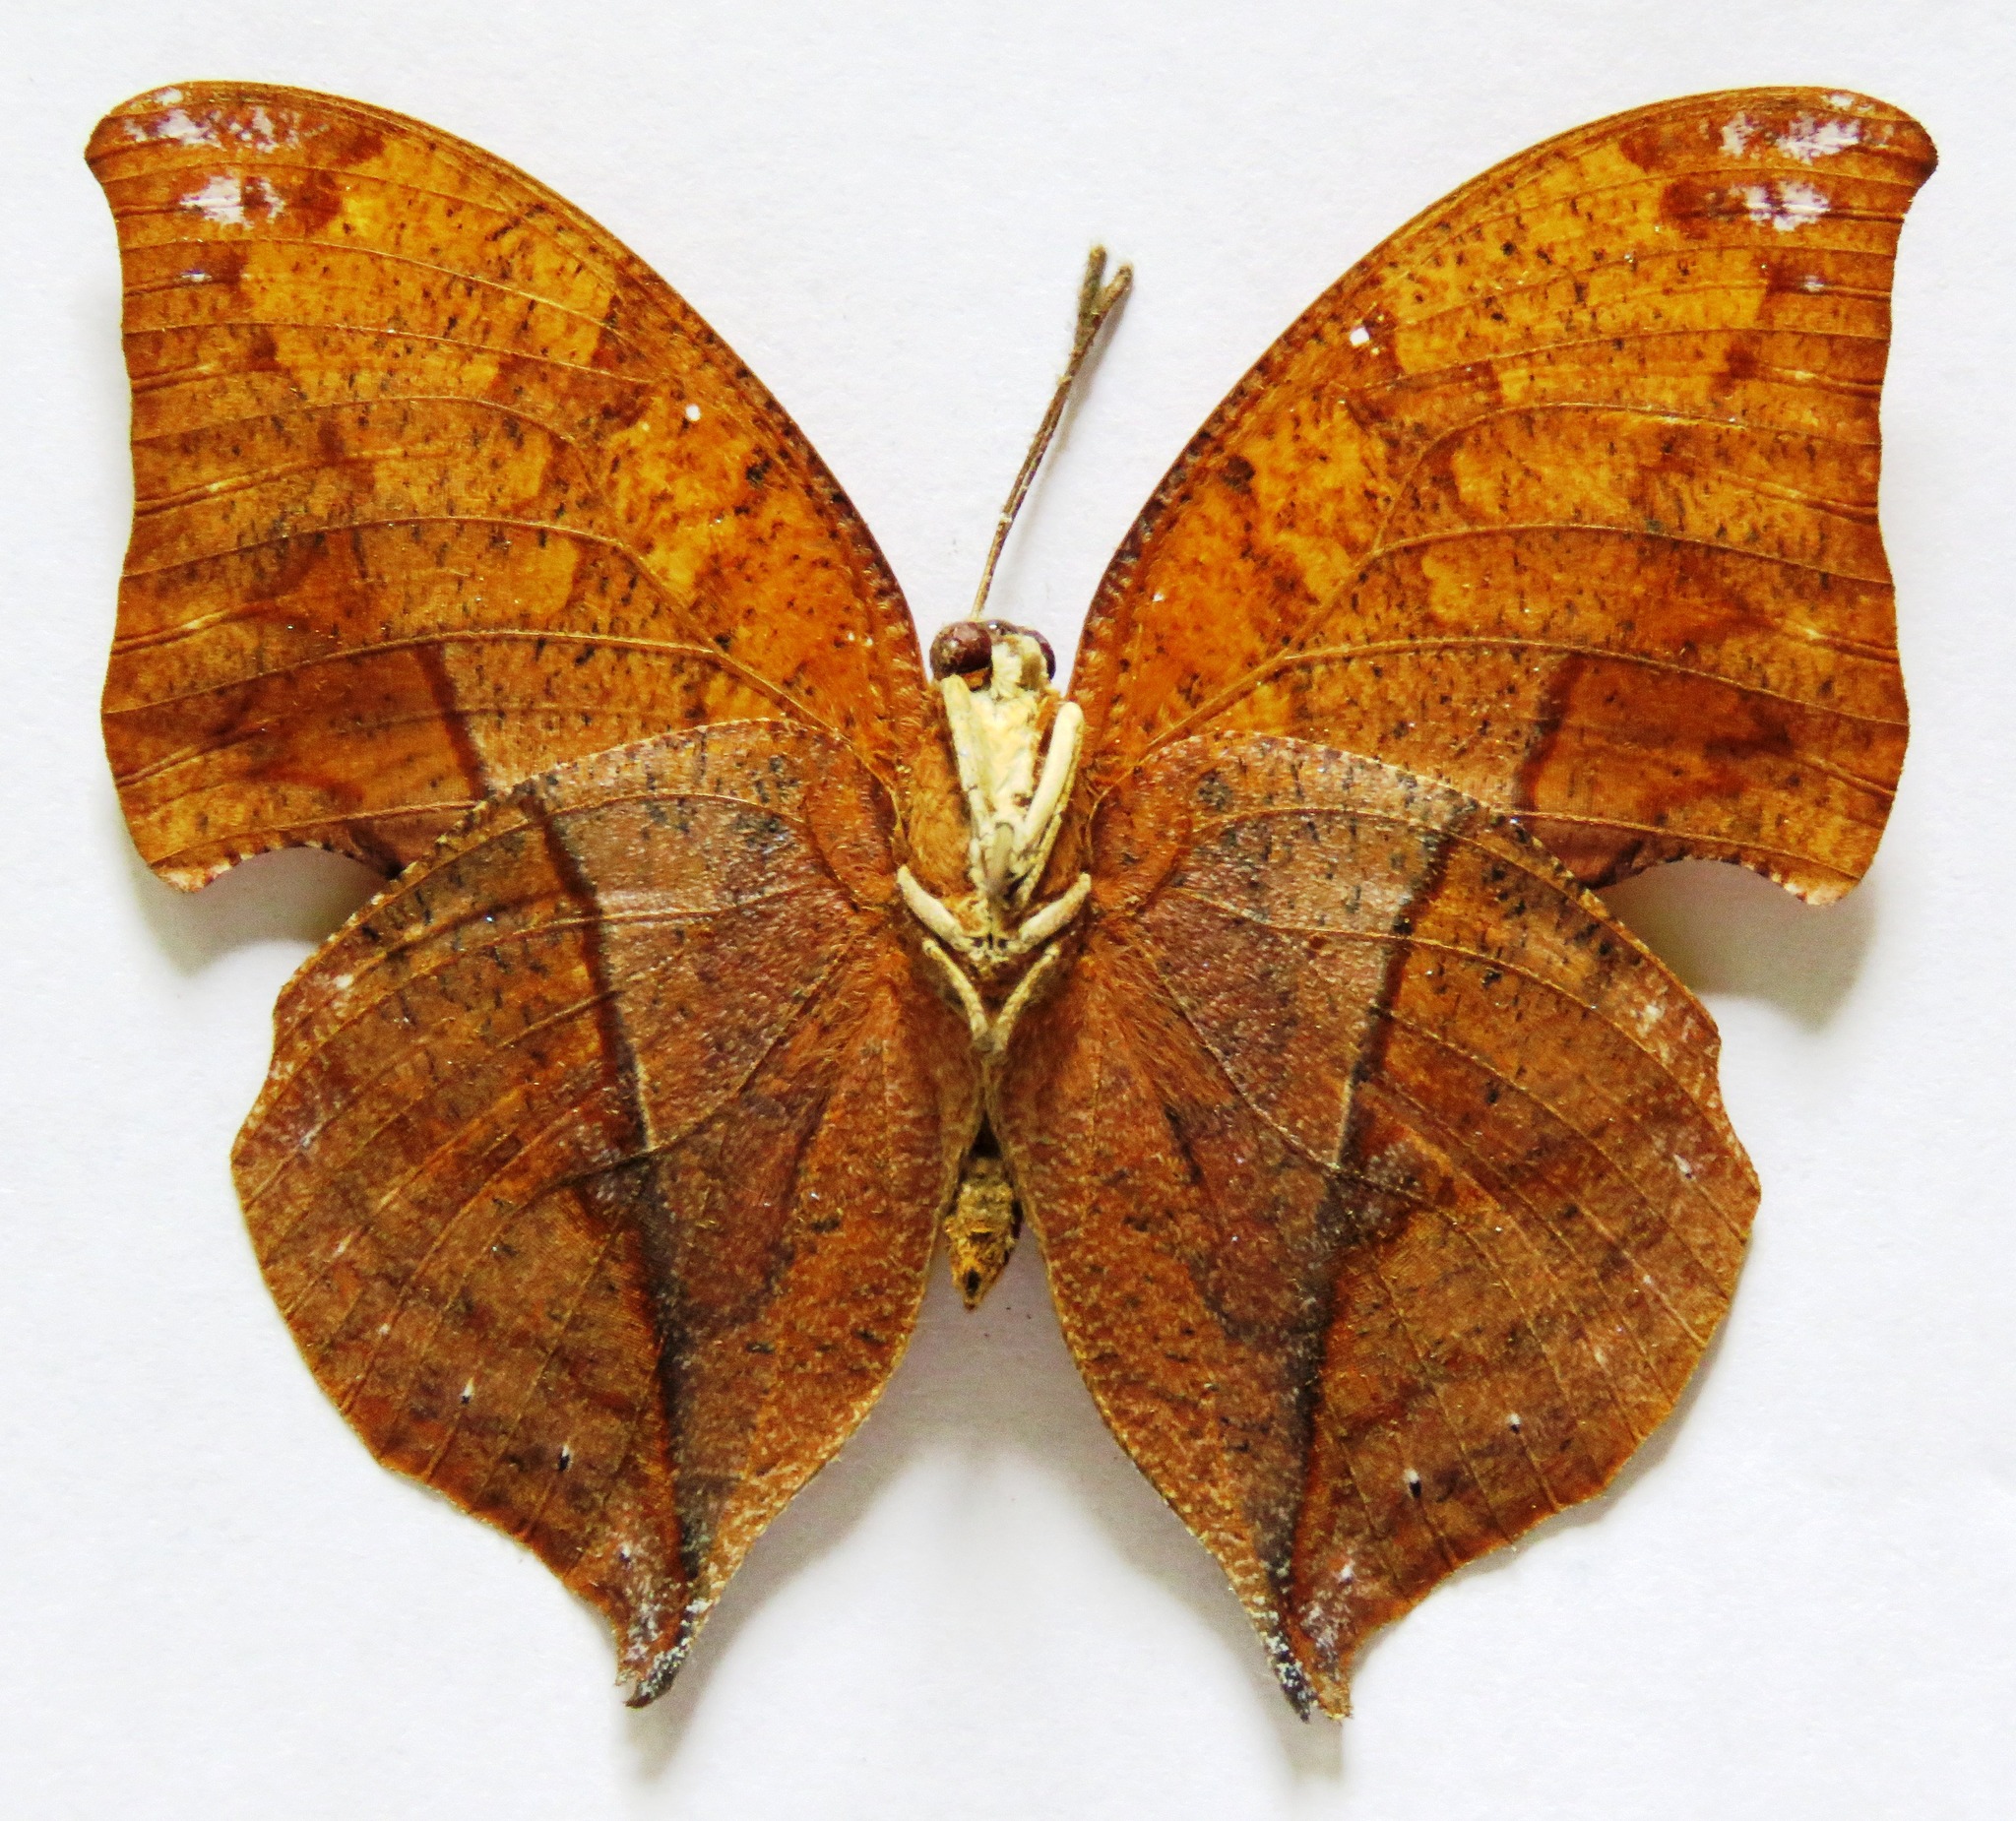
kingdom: Animalia
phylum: Arthropoda
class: Insecta
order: Lepidoptera
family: Nymphalidae
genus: Zaretis
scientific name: Zaretis itys
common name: Skeletonized leafwing
